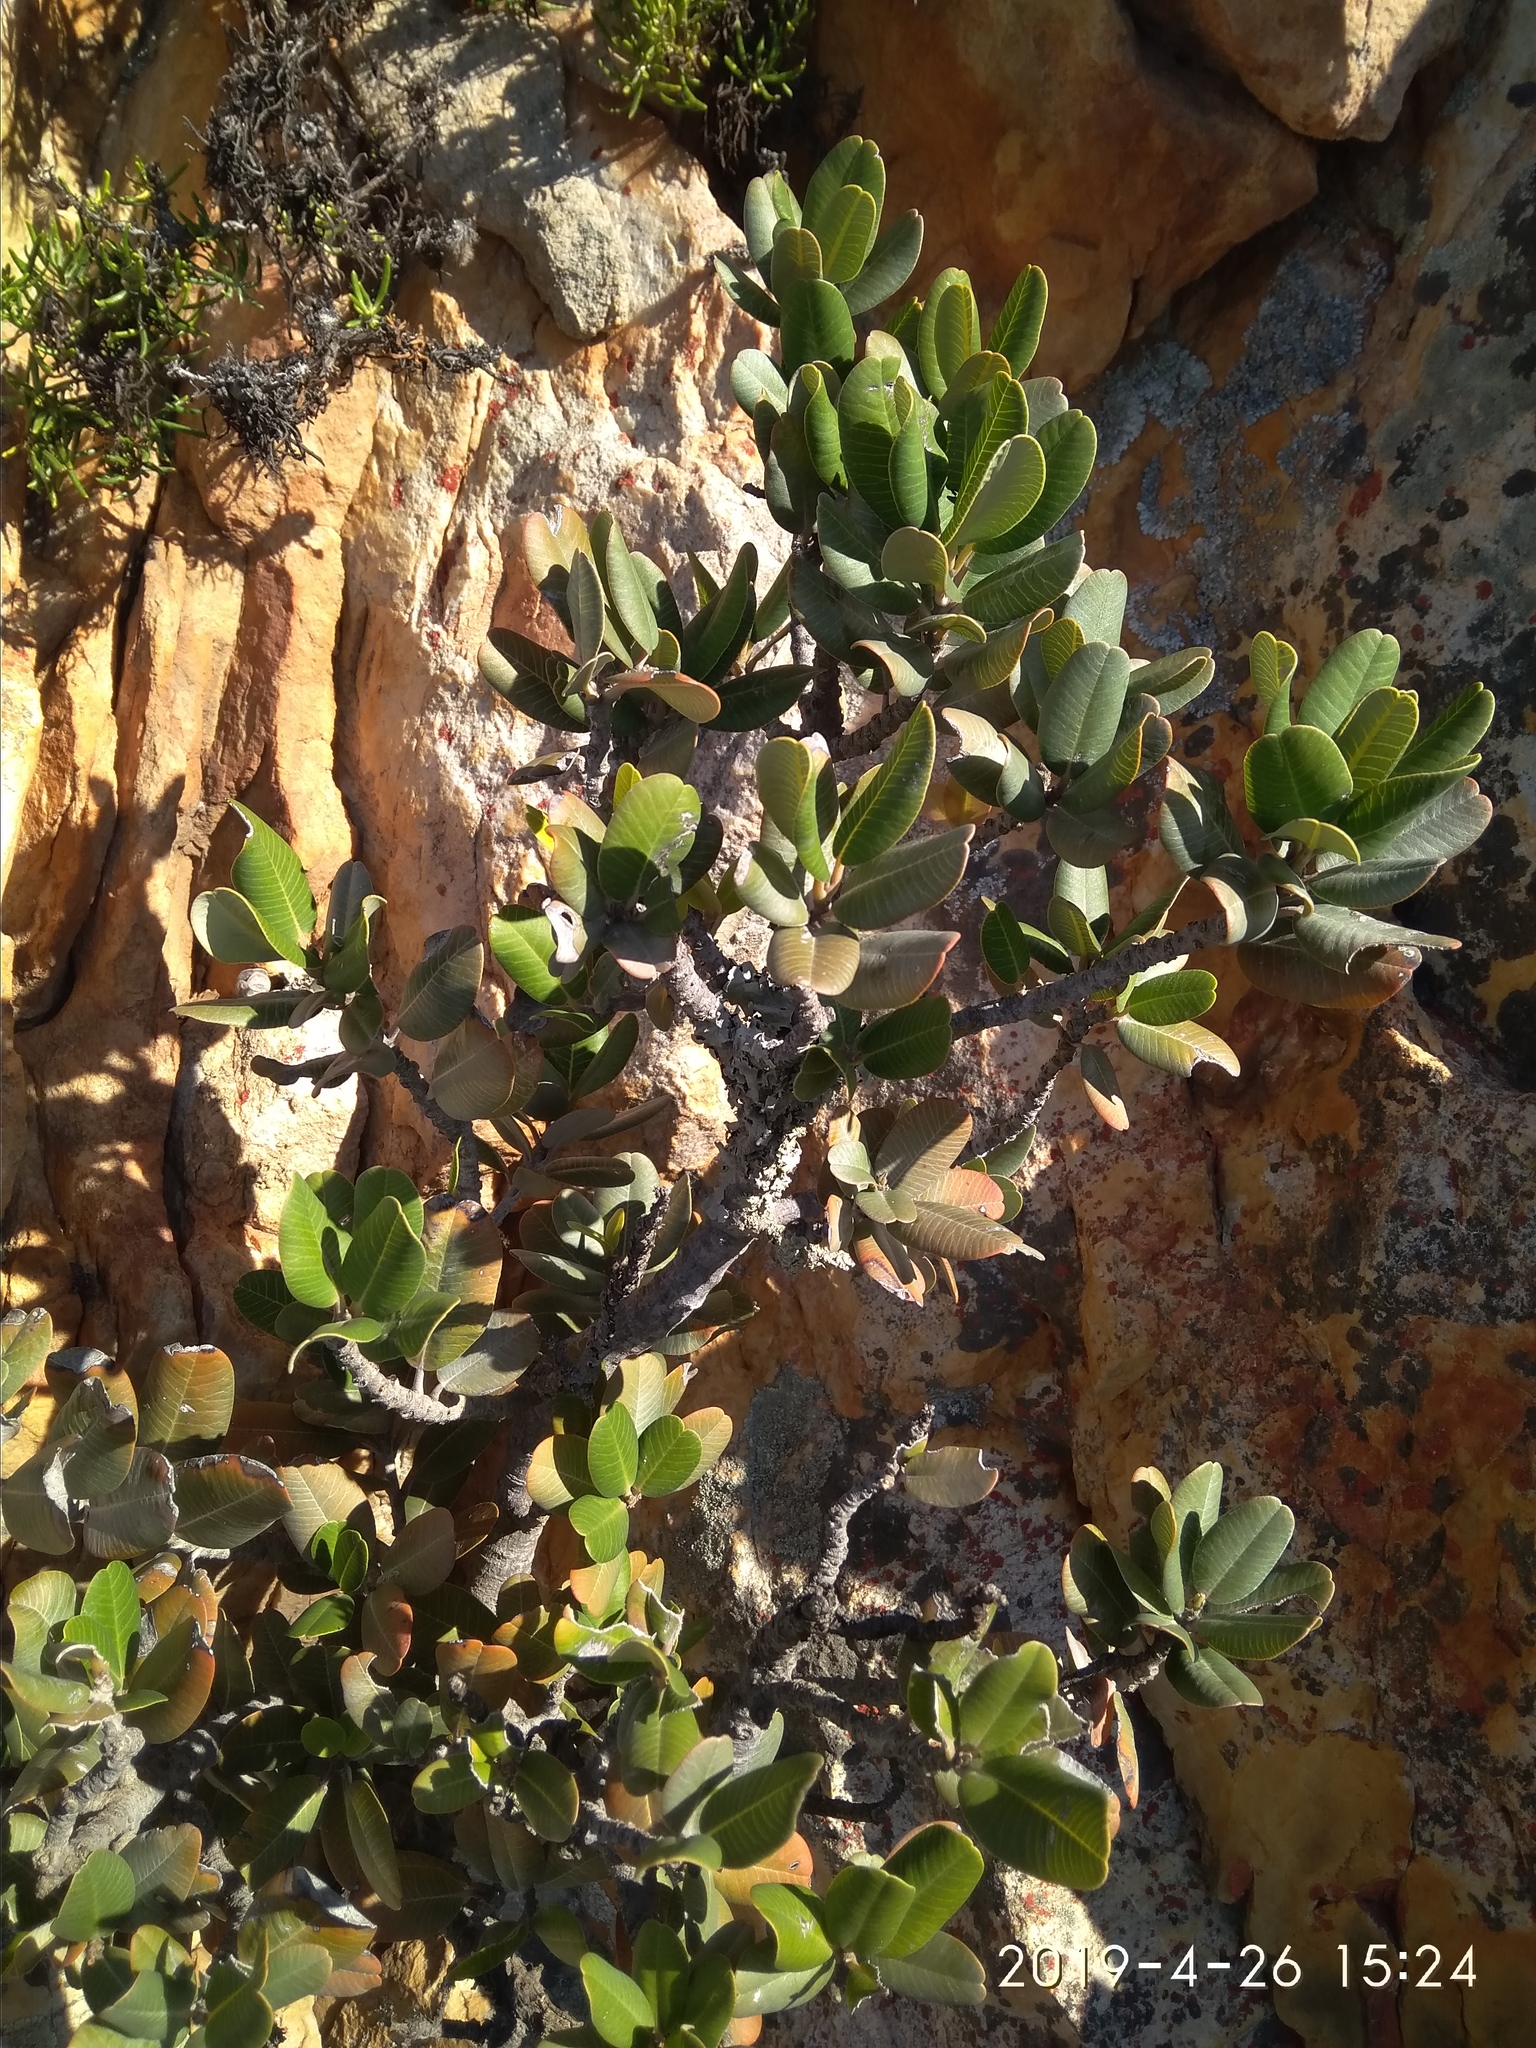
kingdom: Plantae
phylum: Tracheophyta
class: Magnoliopsida
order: Sapindales
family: Anacardiaceae
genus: Heeria
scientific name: Heeria argentea
